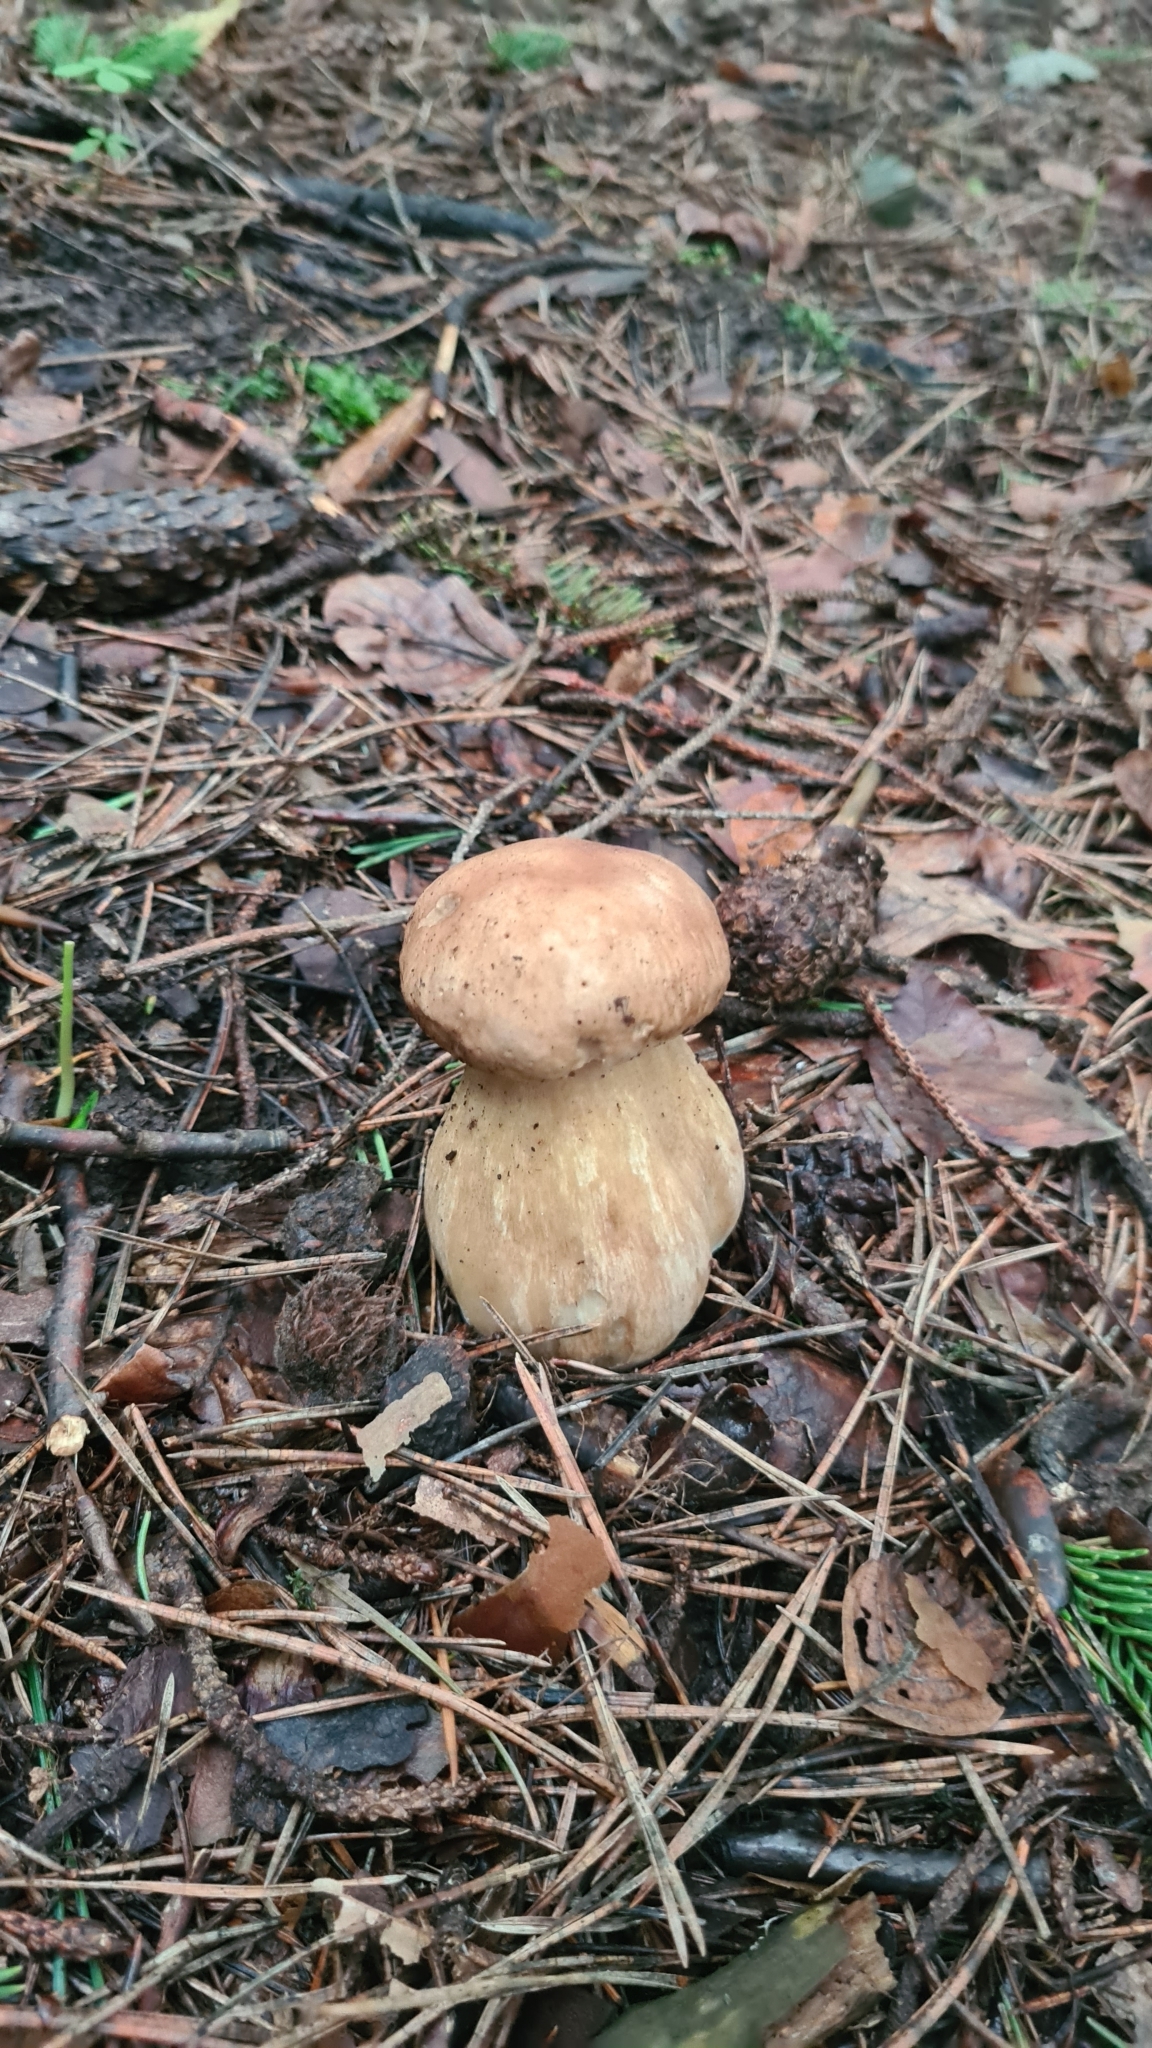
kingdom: Fungi
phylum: Basidiomycota
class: Agaricomycetes
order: Boletales
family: Boletaceae
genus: Boletus
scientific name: Boletus reticulatus
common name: Summer bolete
